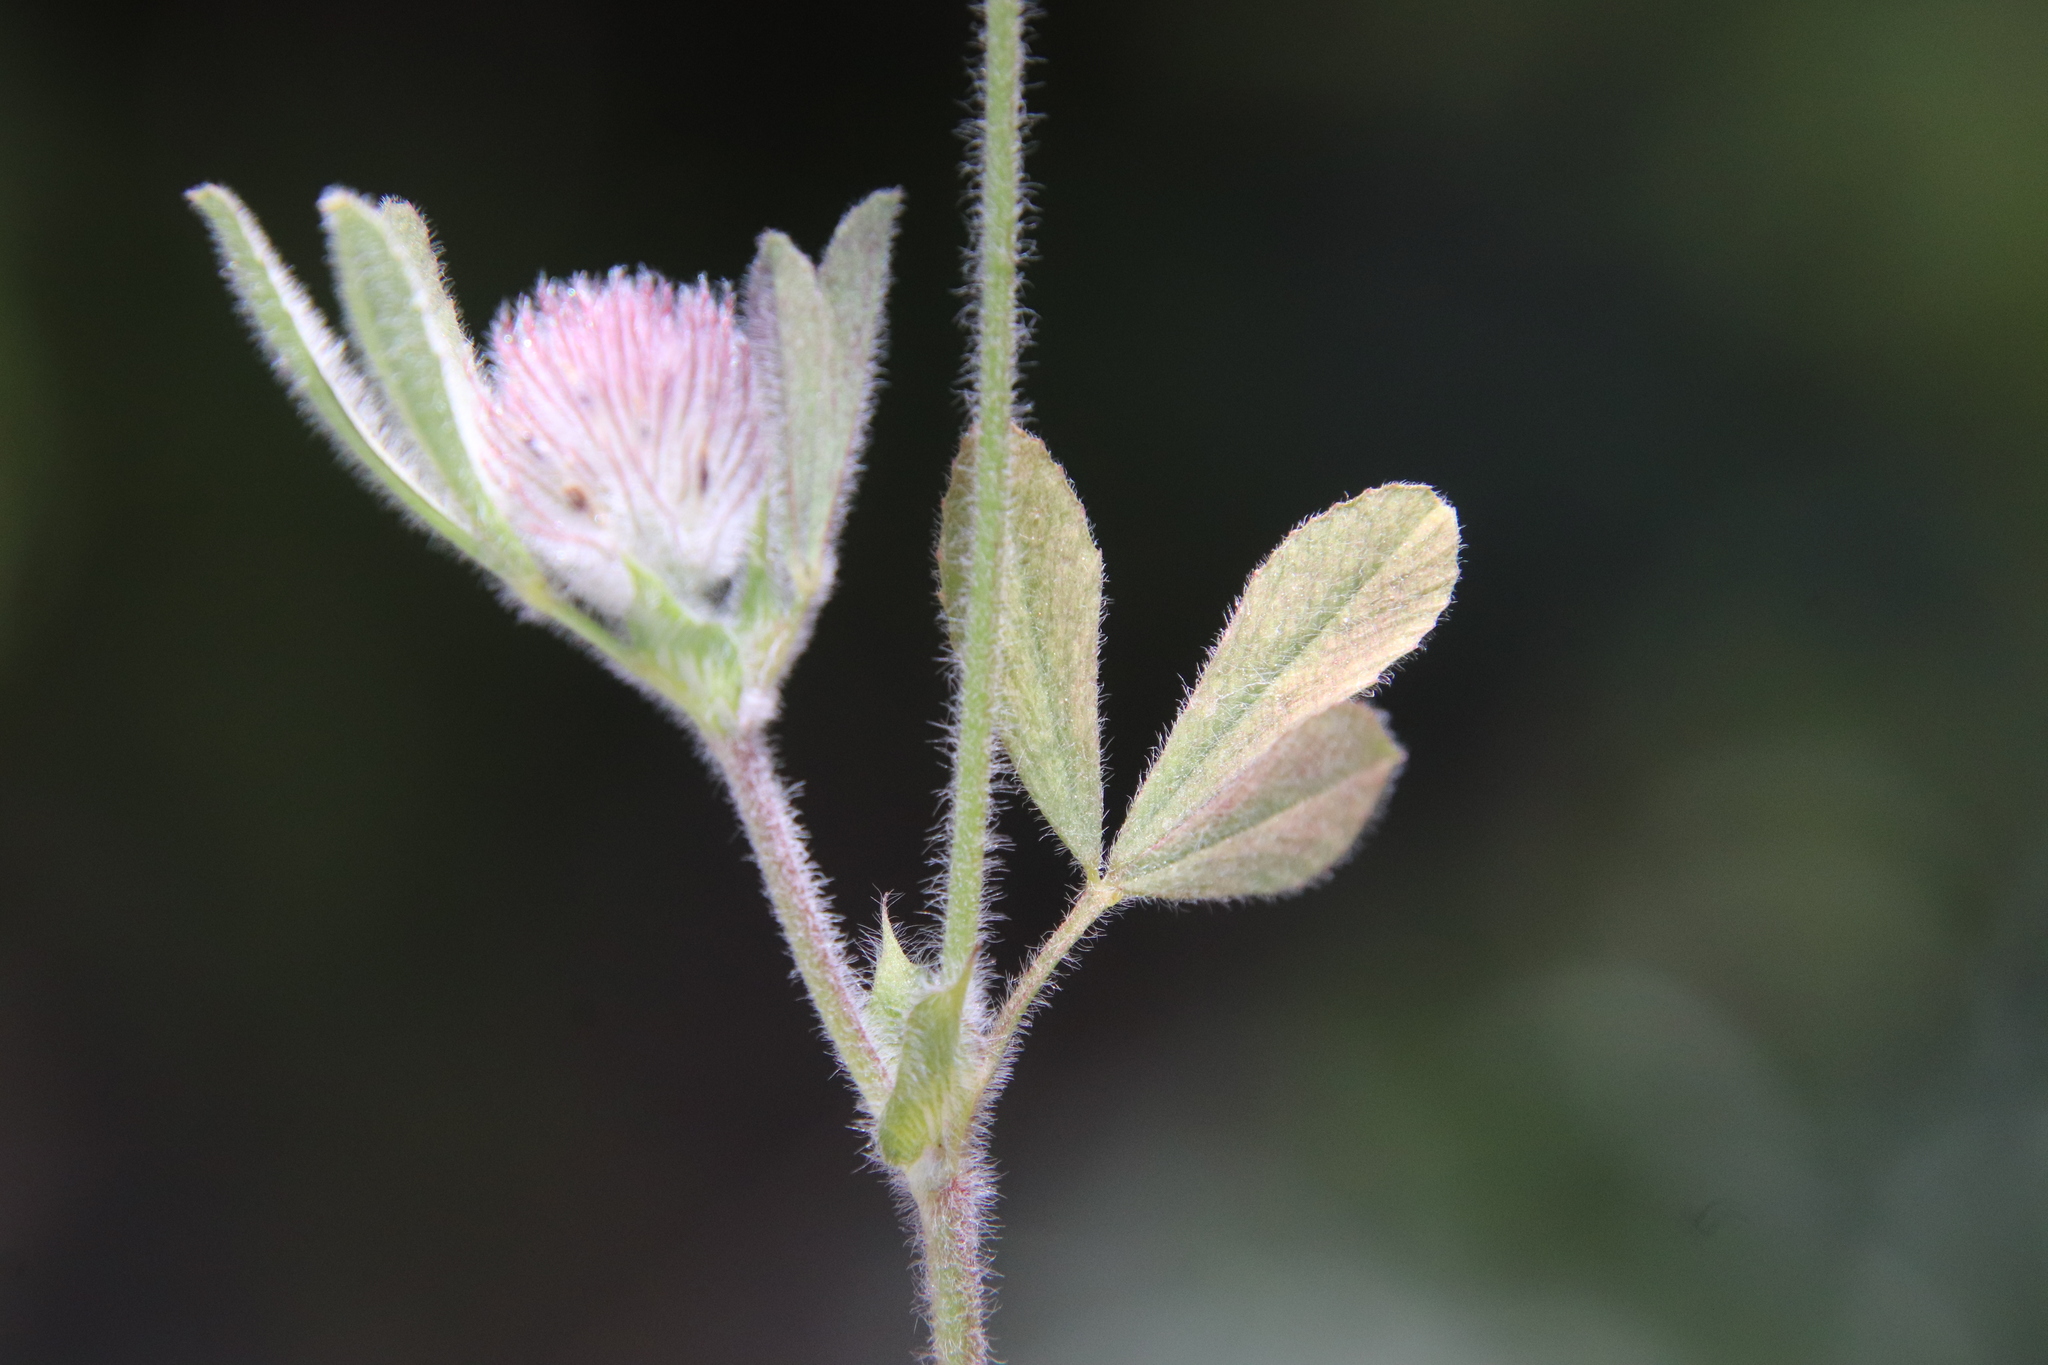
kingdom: Plantae
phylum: Tracheophyta
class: Magnoliopsida
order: Fabales
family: Fabaceae
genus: Trifolium
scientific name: Trifolium albopurpureum
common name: Rancheria clover
